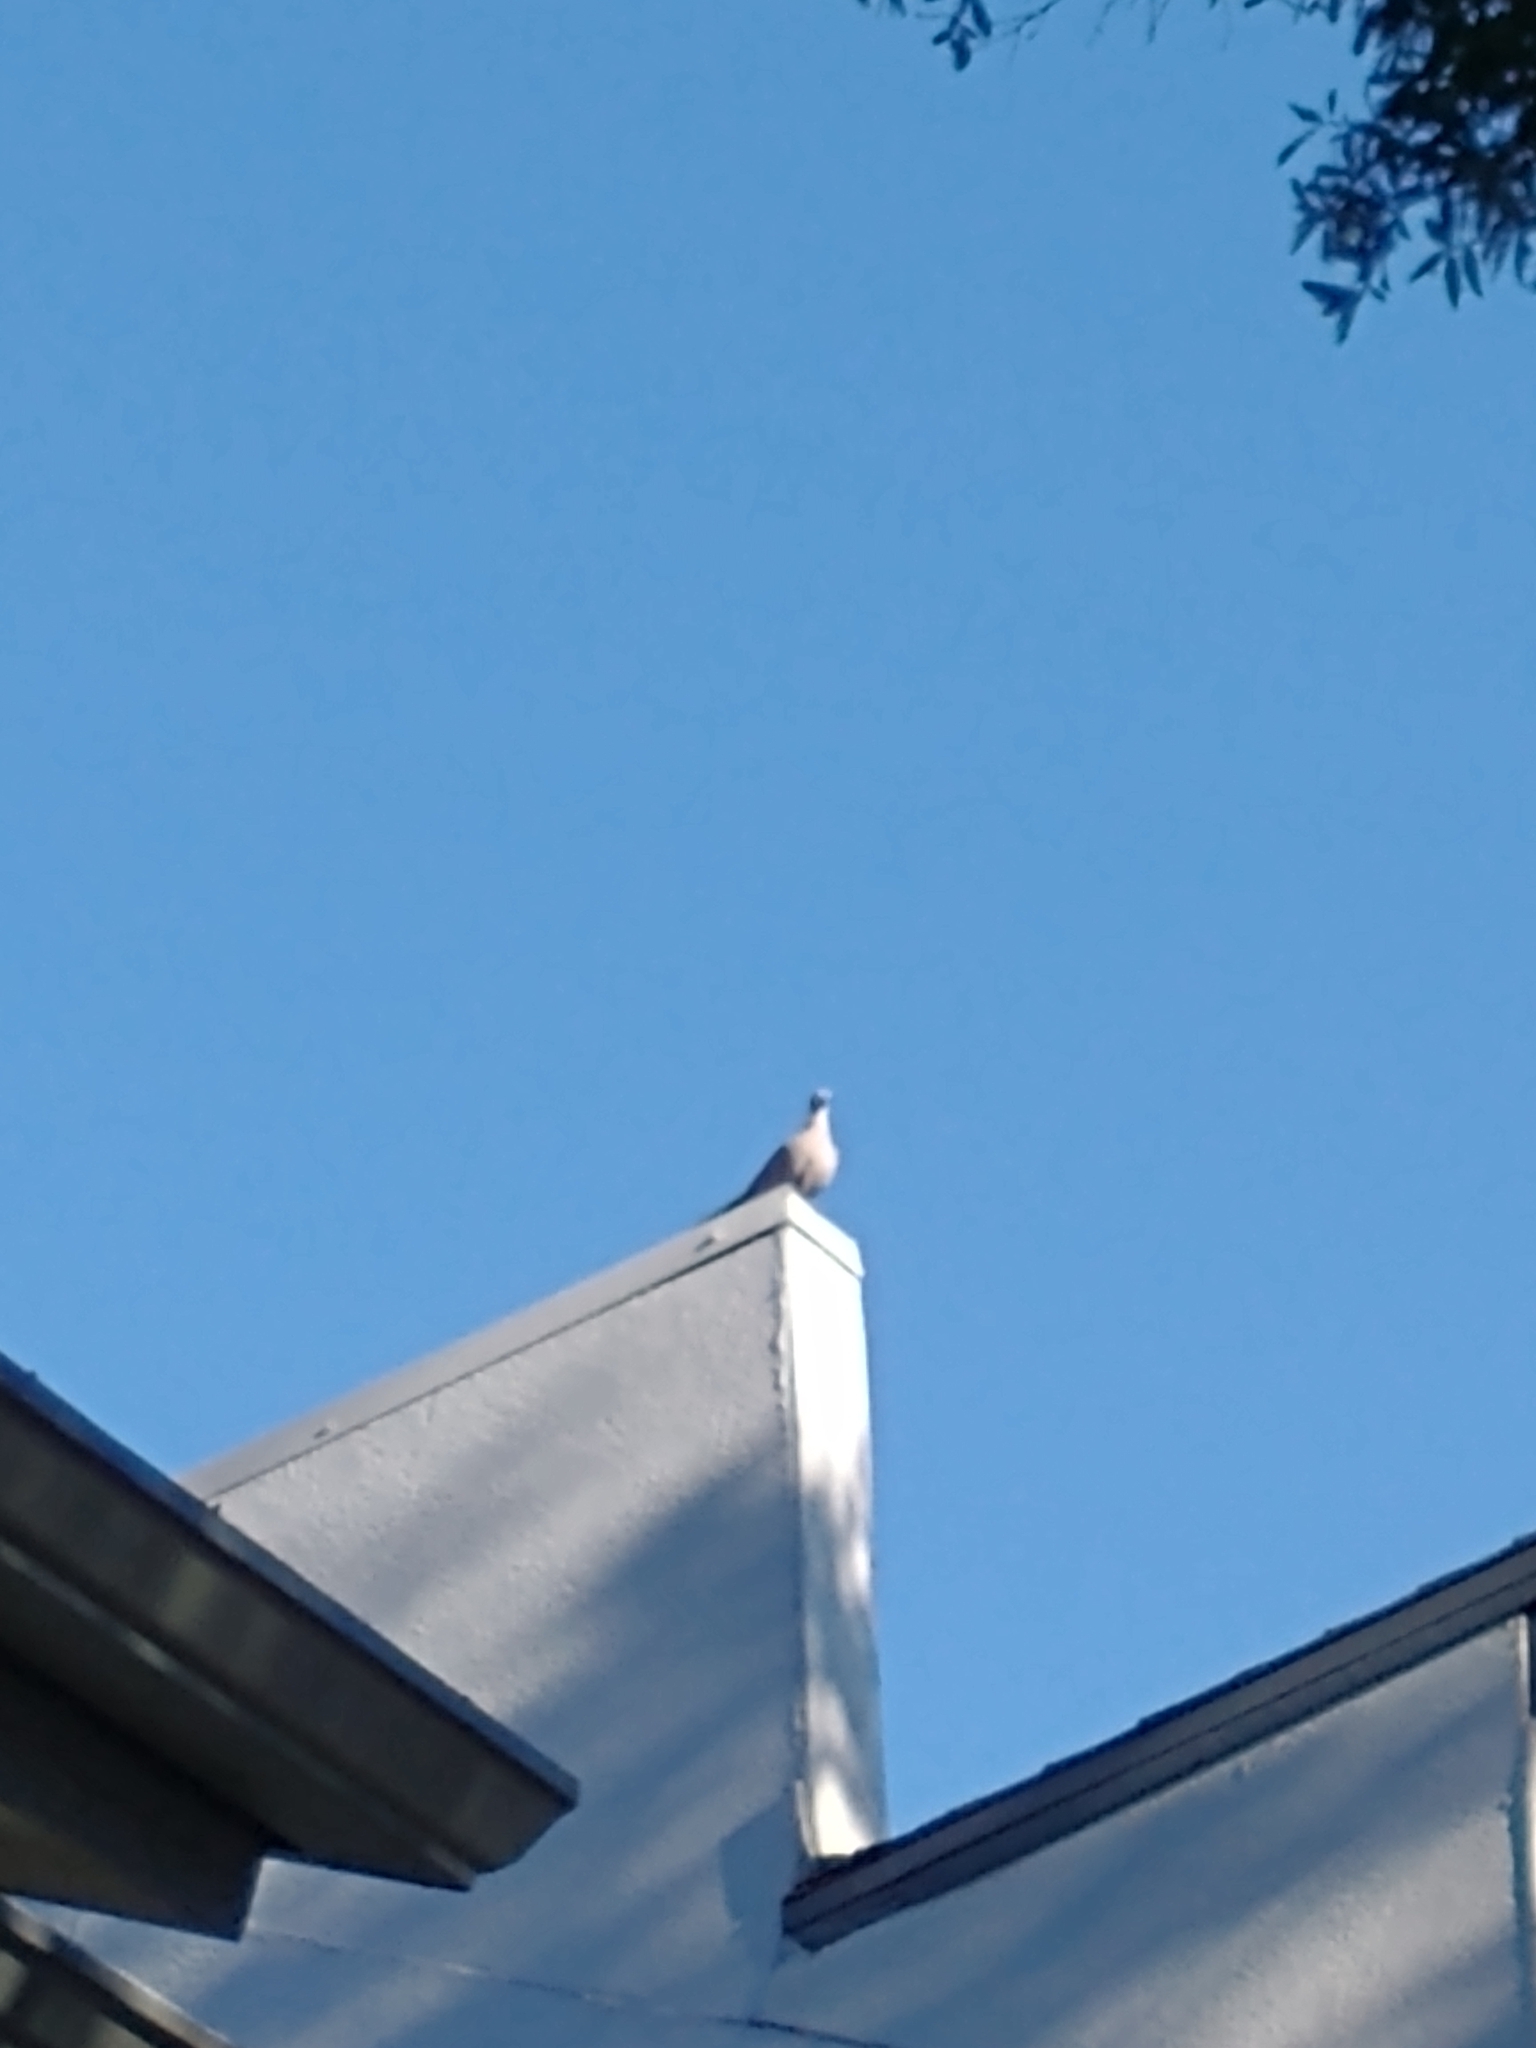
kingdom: Animalia
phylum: Chordata
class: Aves
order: Columbiformes
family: Columbidae
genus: Streptopelia
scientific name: Streptopelia decaocto
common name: Eurasian collared dove
